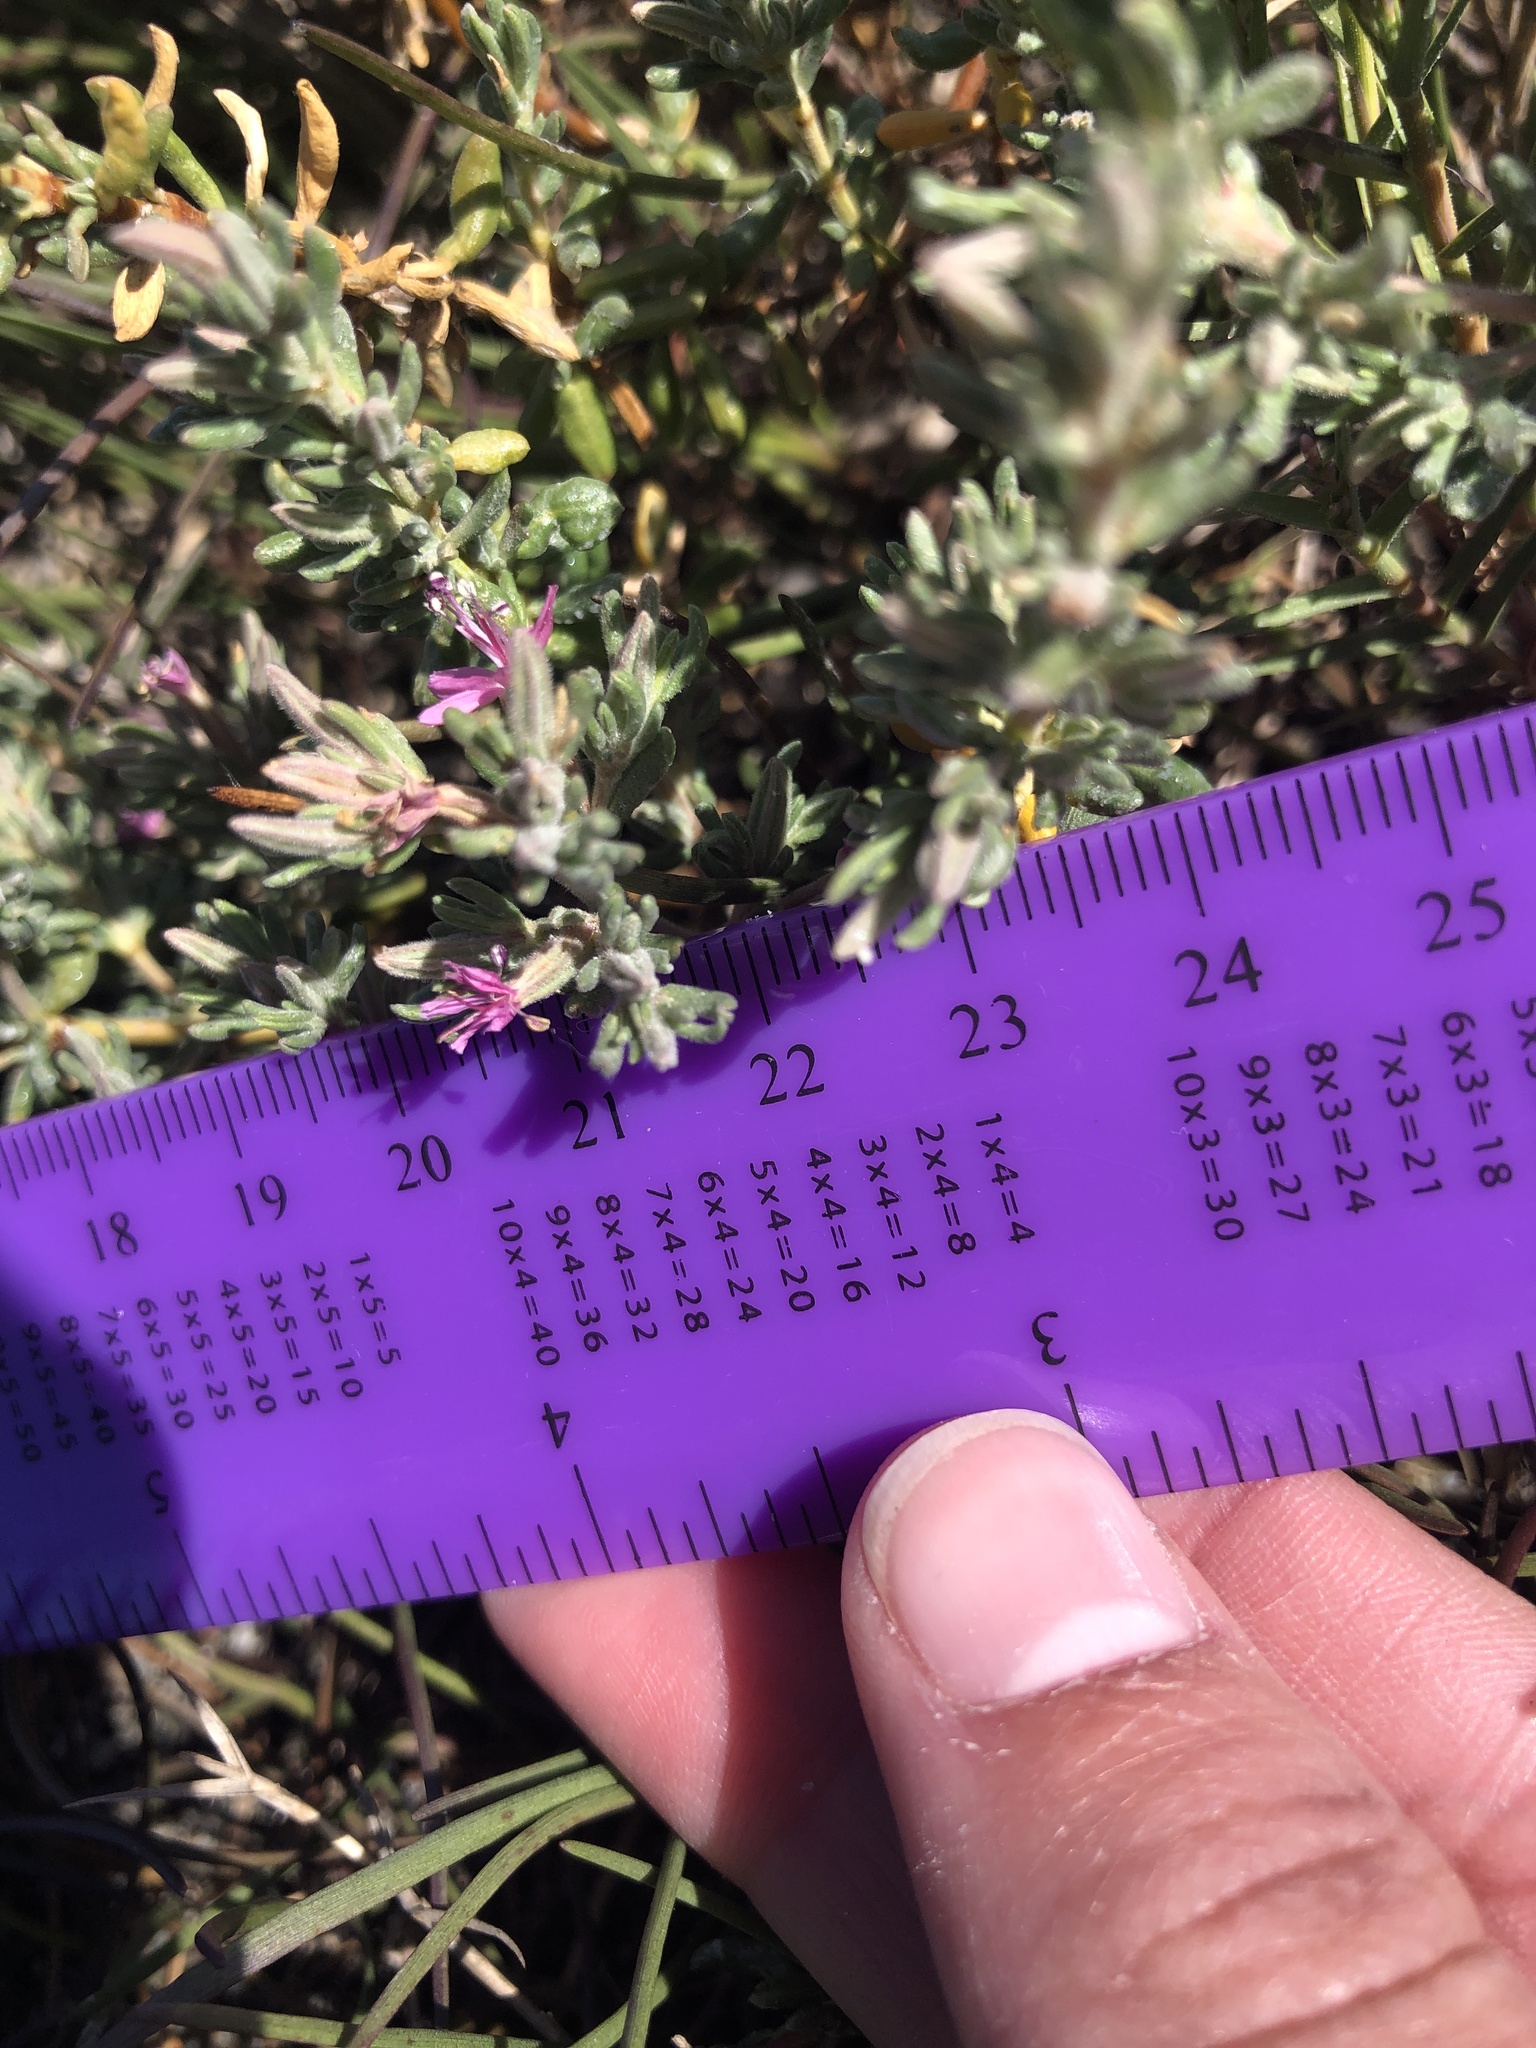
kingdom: Plantae
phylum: Tracheophyta
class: Magnoliopsida
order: Caryophyllales
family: Frankeniaceae
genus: Frankenia
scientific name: Frankenia salina
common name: Alkali seaheath
